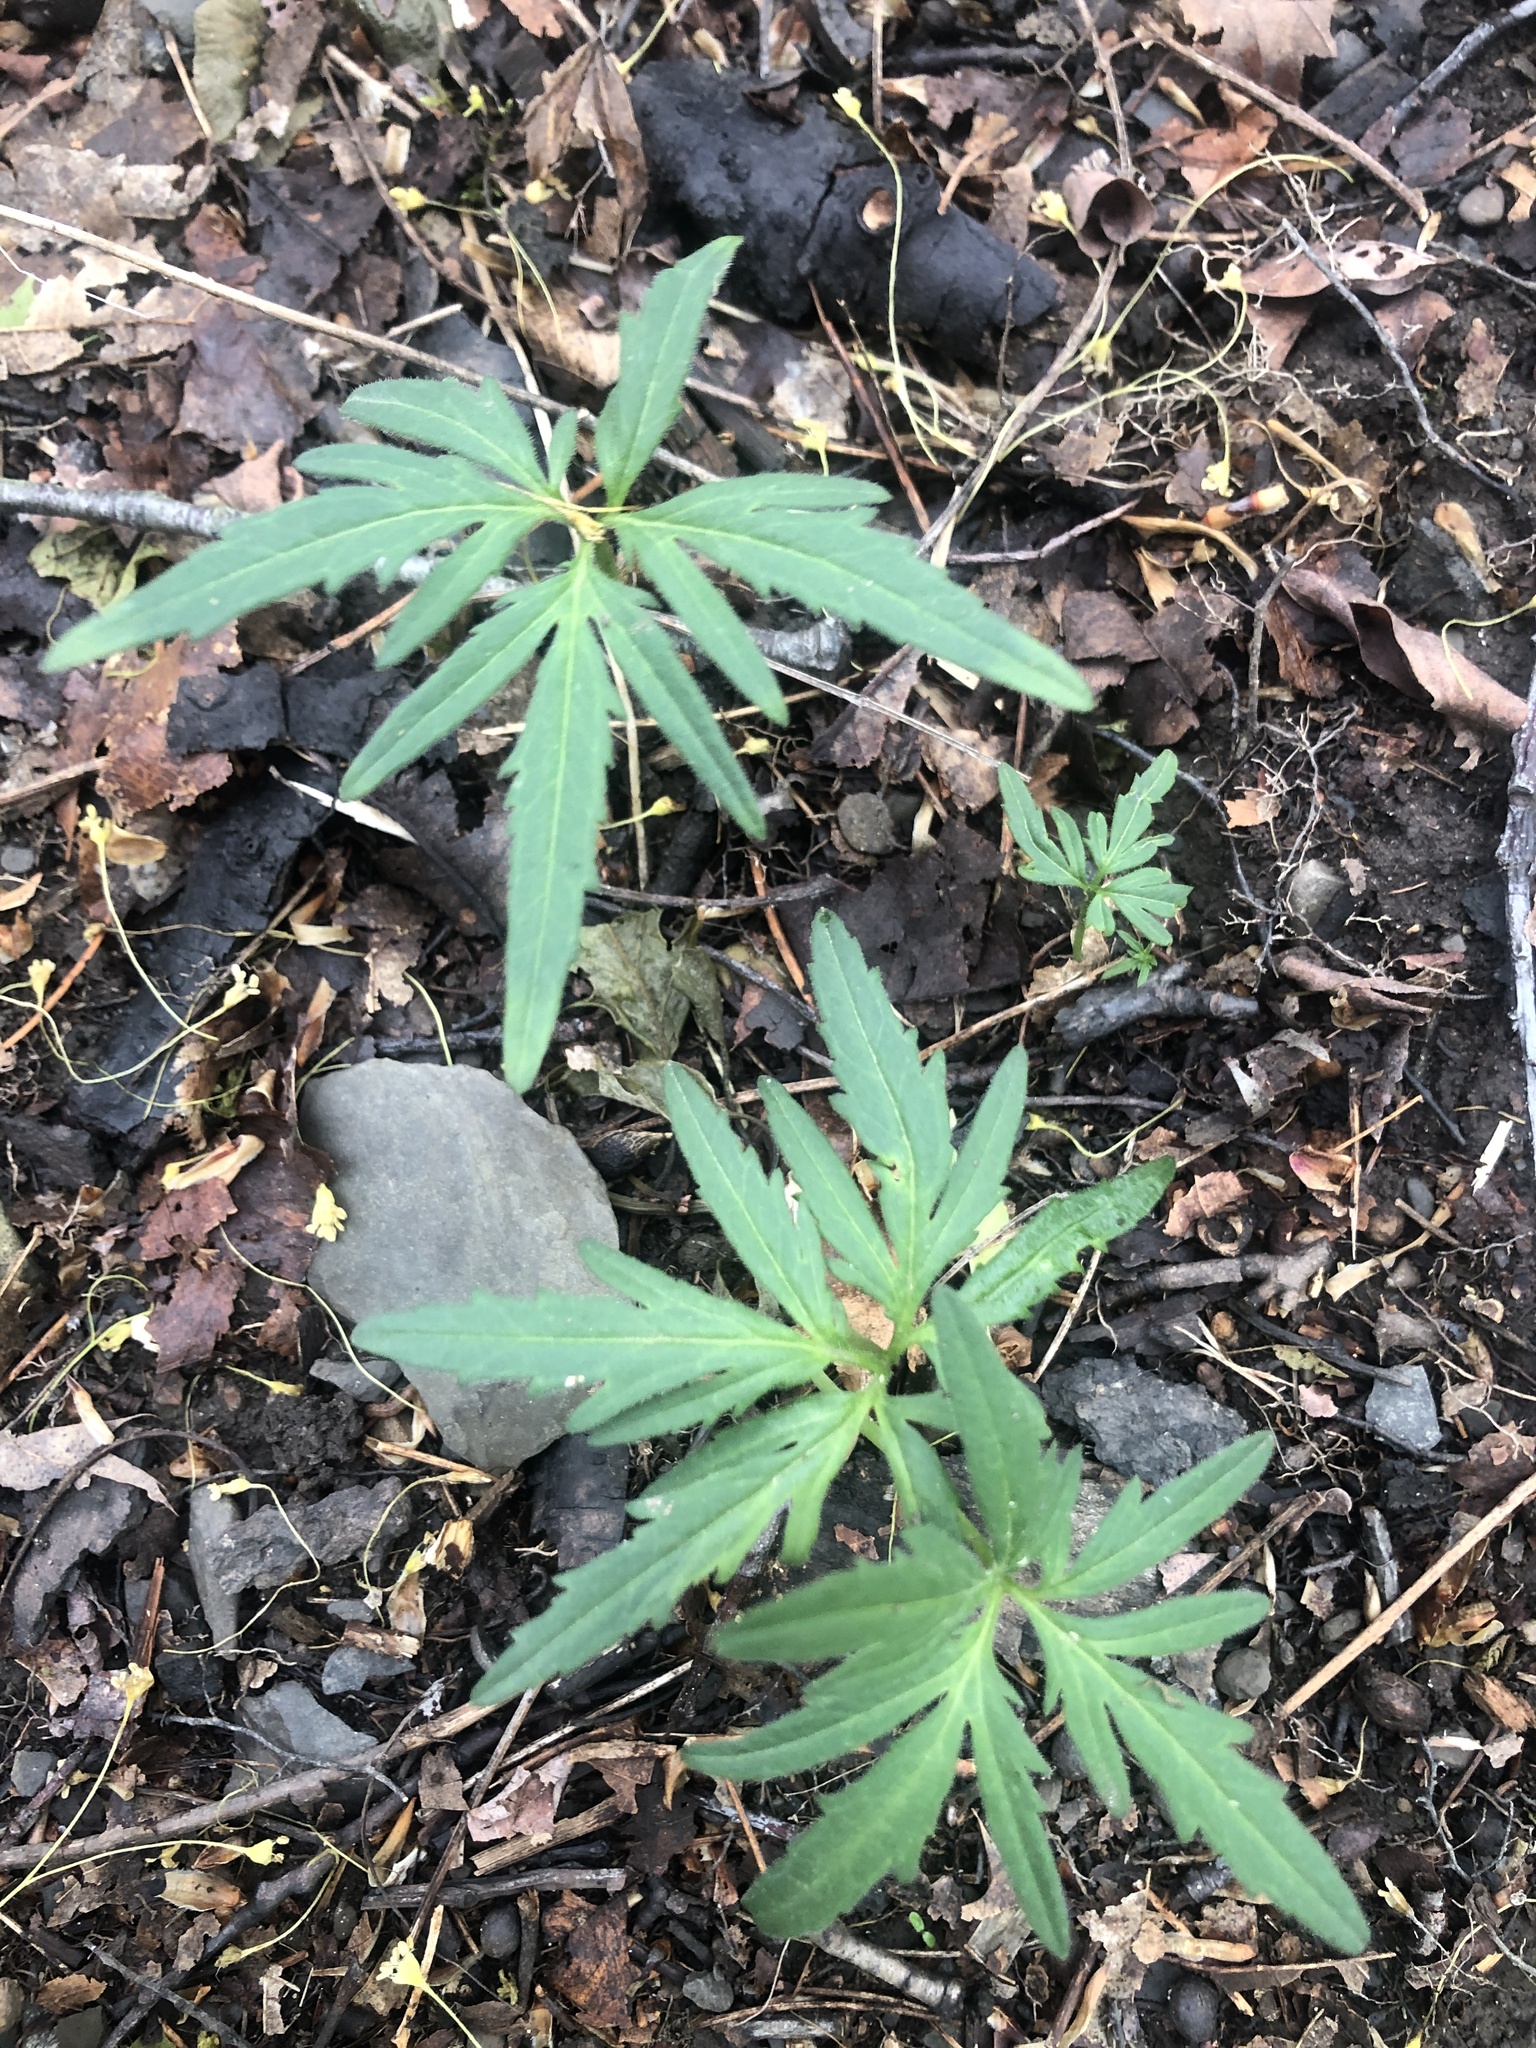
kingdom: Plantae
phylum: Tracheophyta
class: Magnoliopsida
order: Brassicales
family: Brassicaceae
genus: Cardamine
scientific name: Cardamine concatenata
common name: Cut-leaf toothcup
